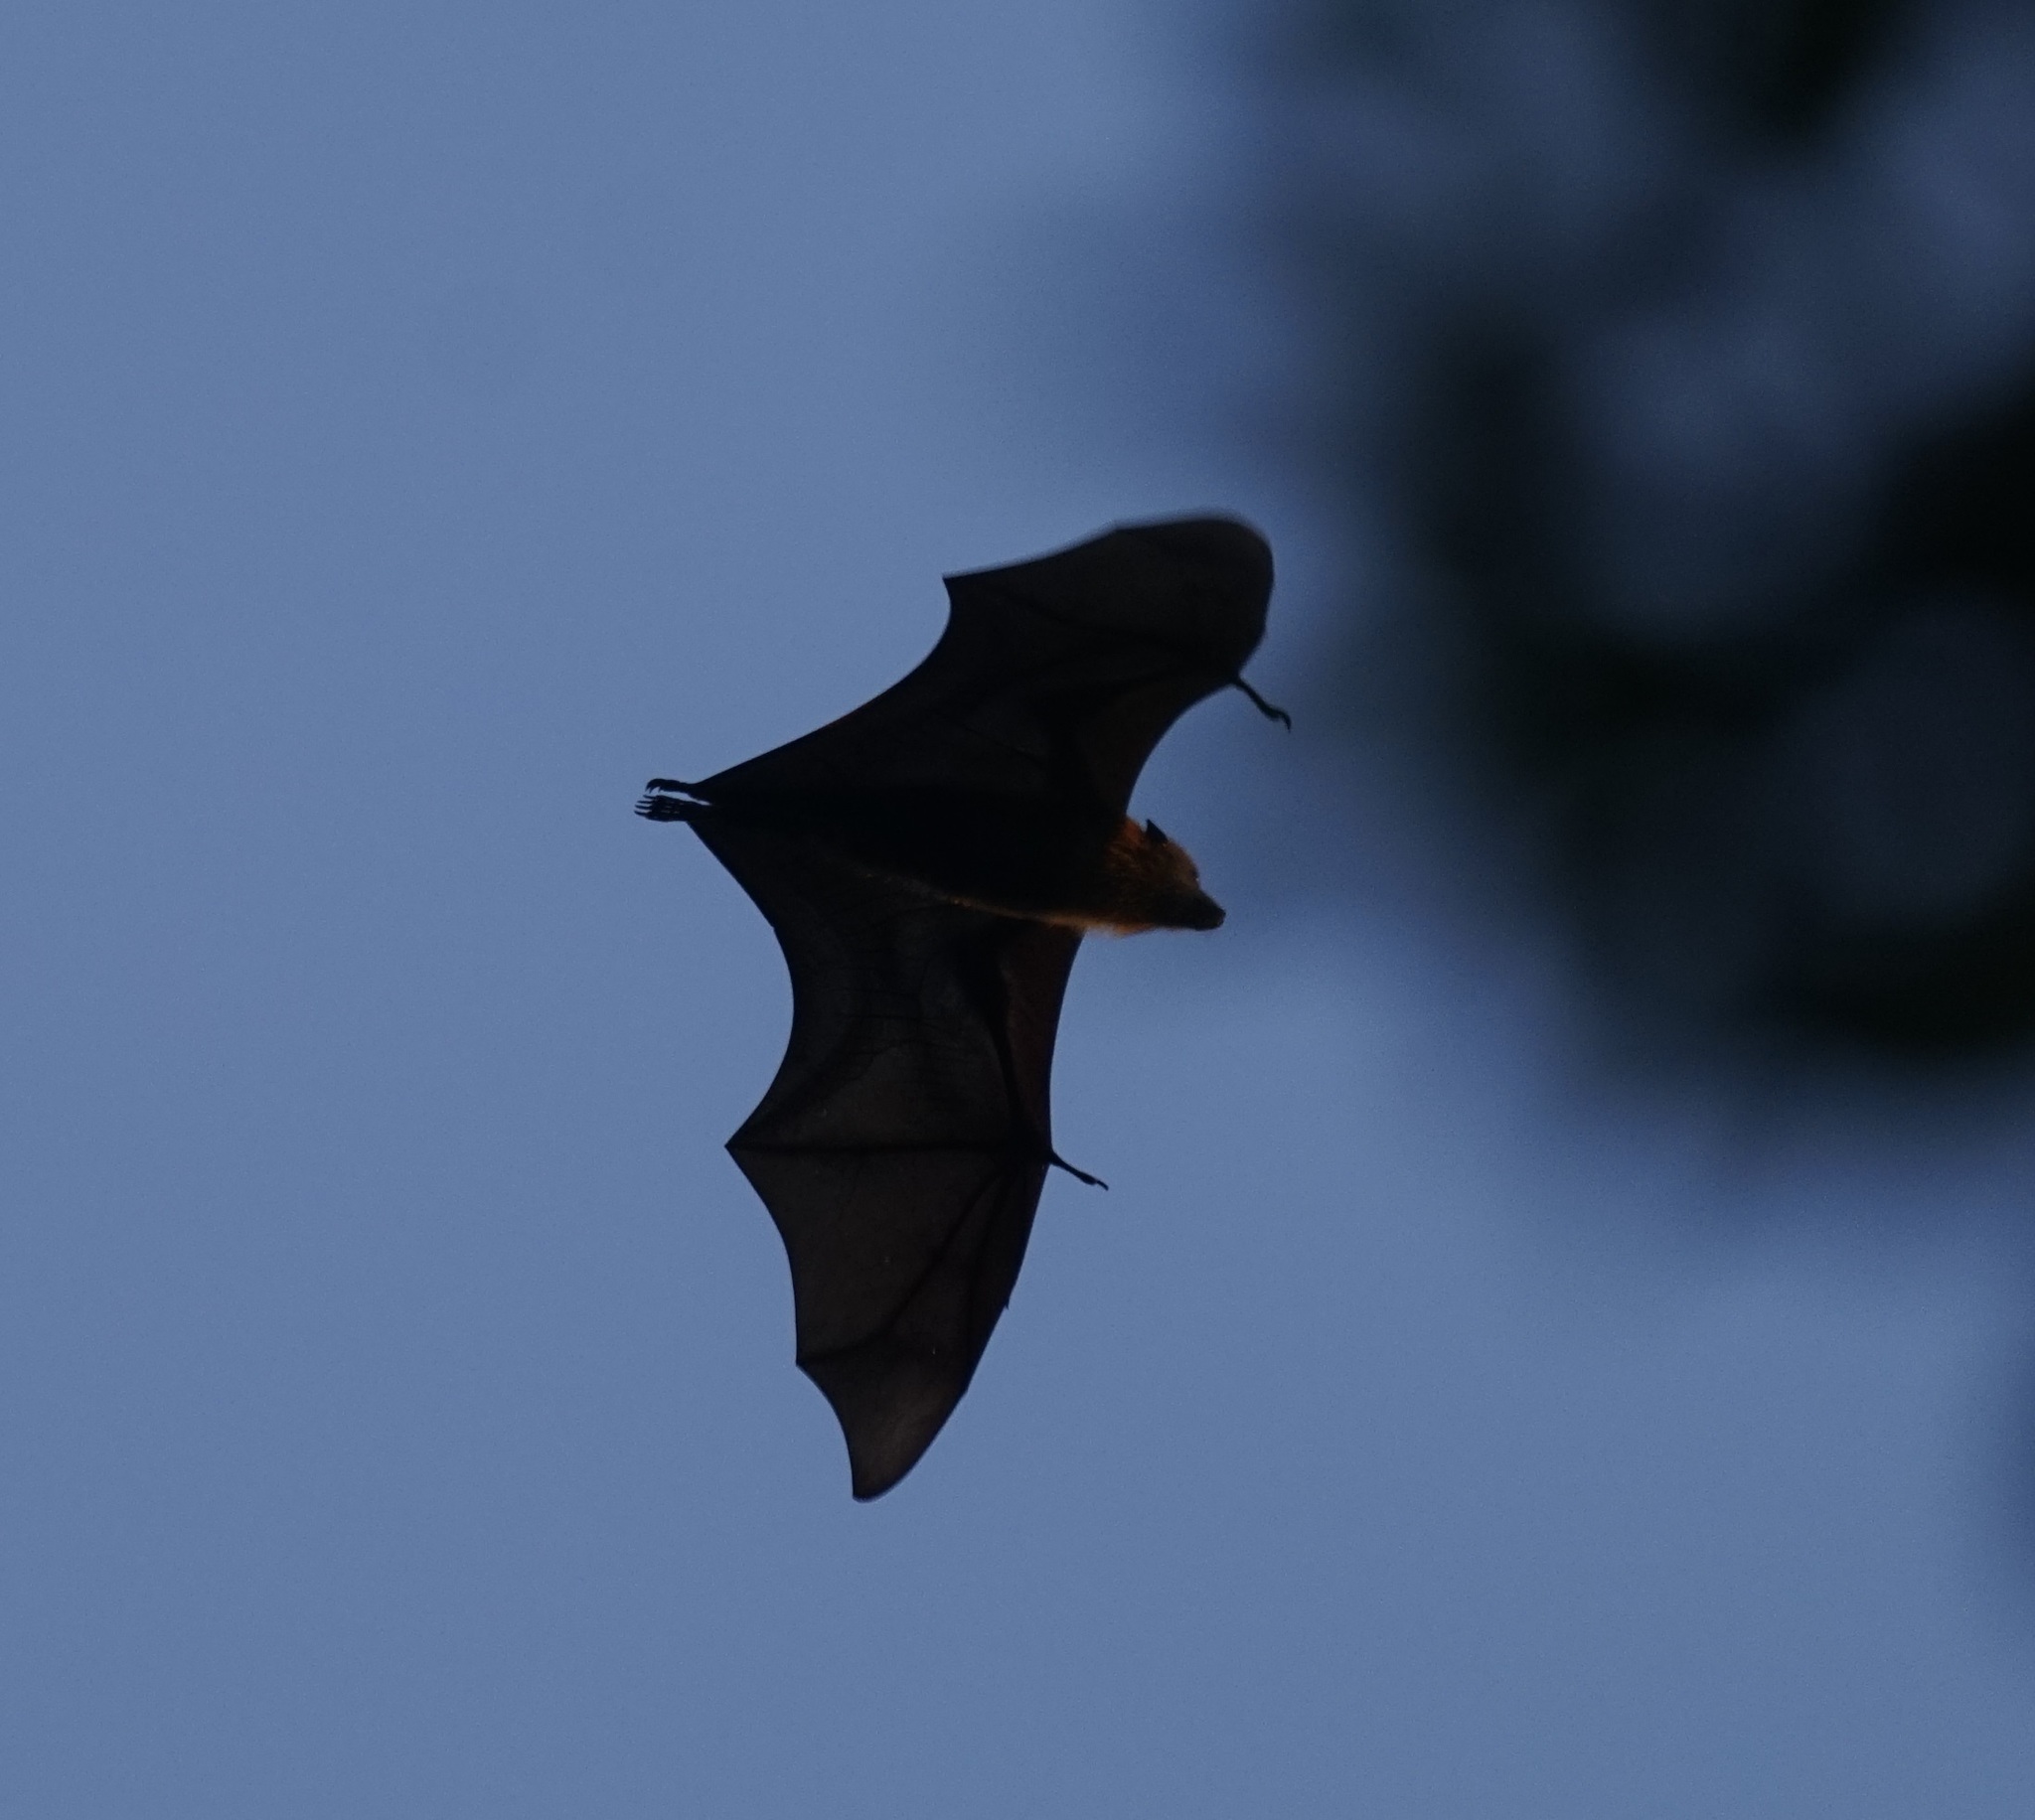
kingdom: Animalia
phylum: Chordata
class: Mammalia
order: Chiroptera
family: Pteropodidae
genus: Pteropus
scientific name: Pteropus poliocephalus
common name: Gray-headed flying fox
